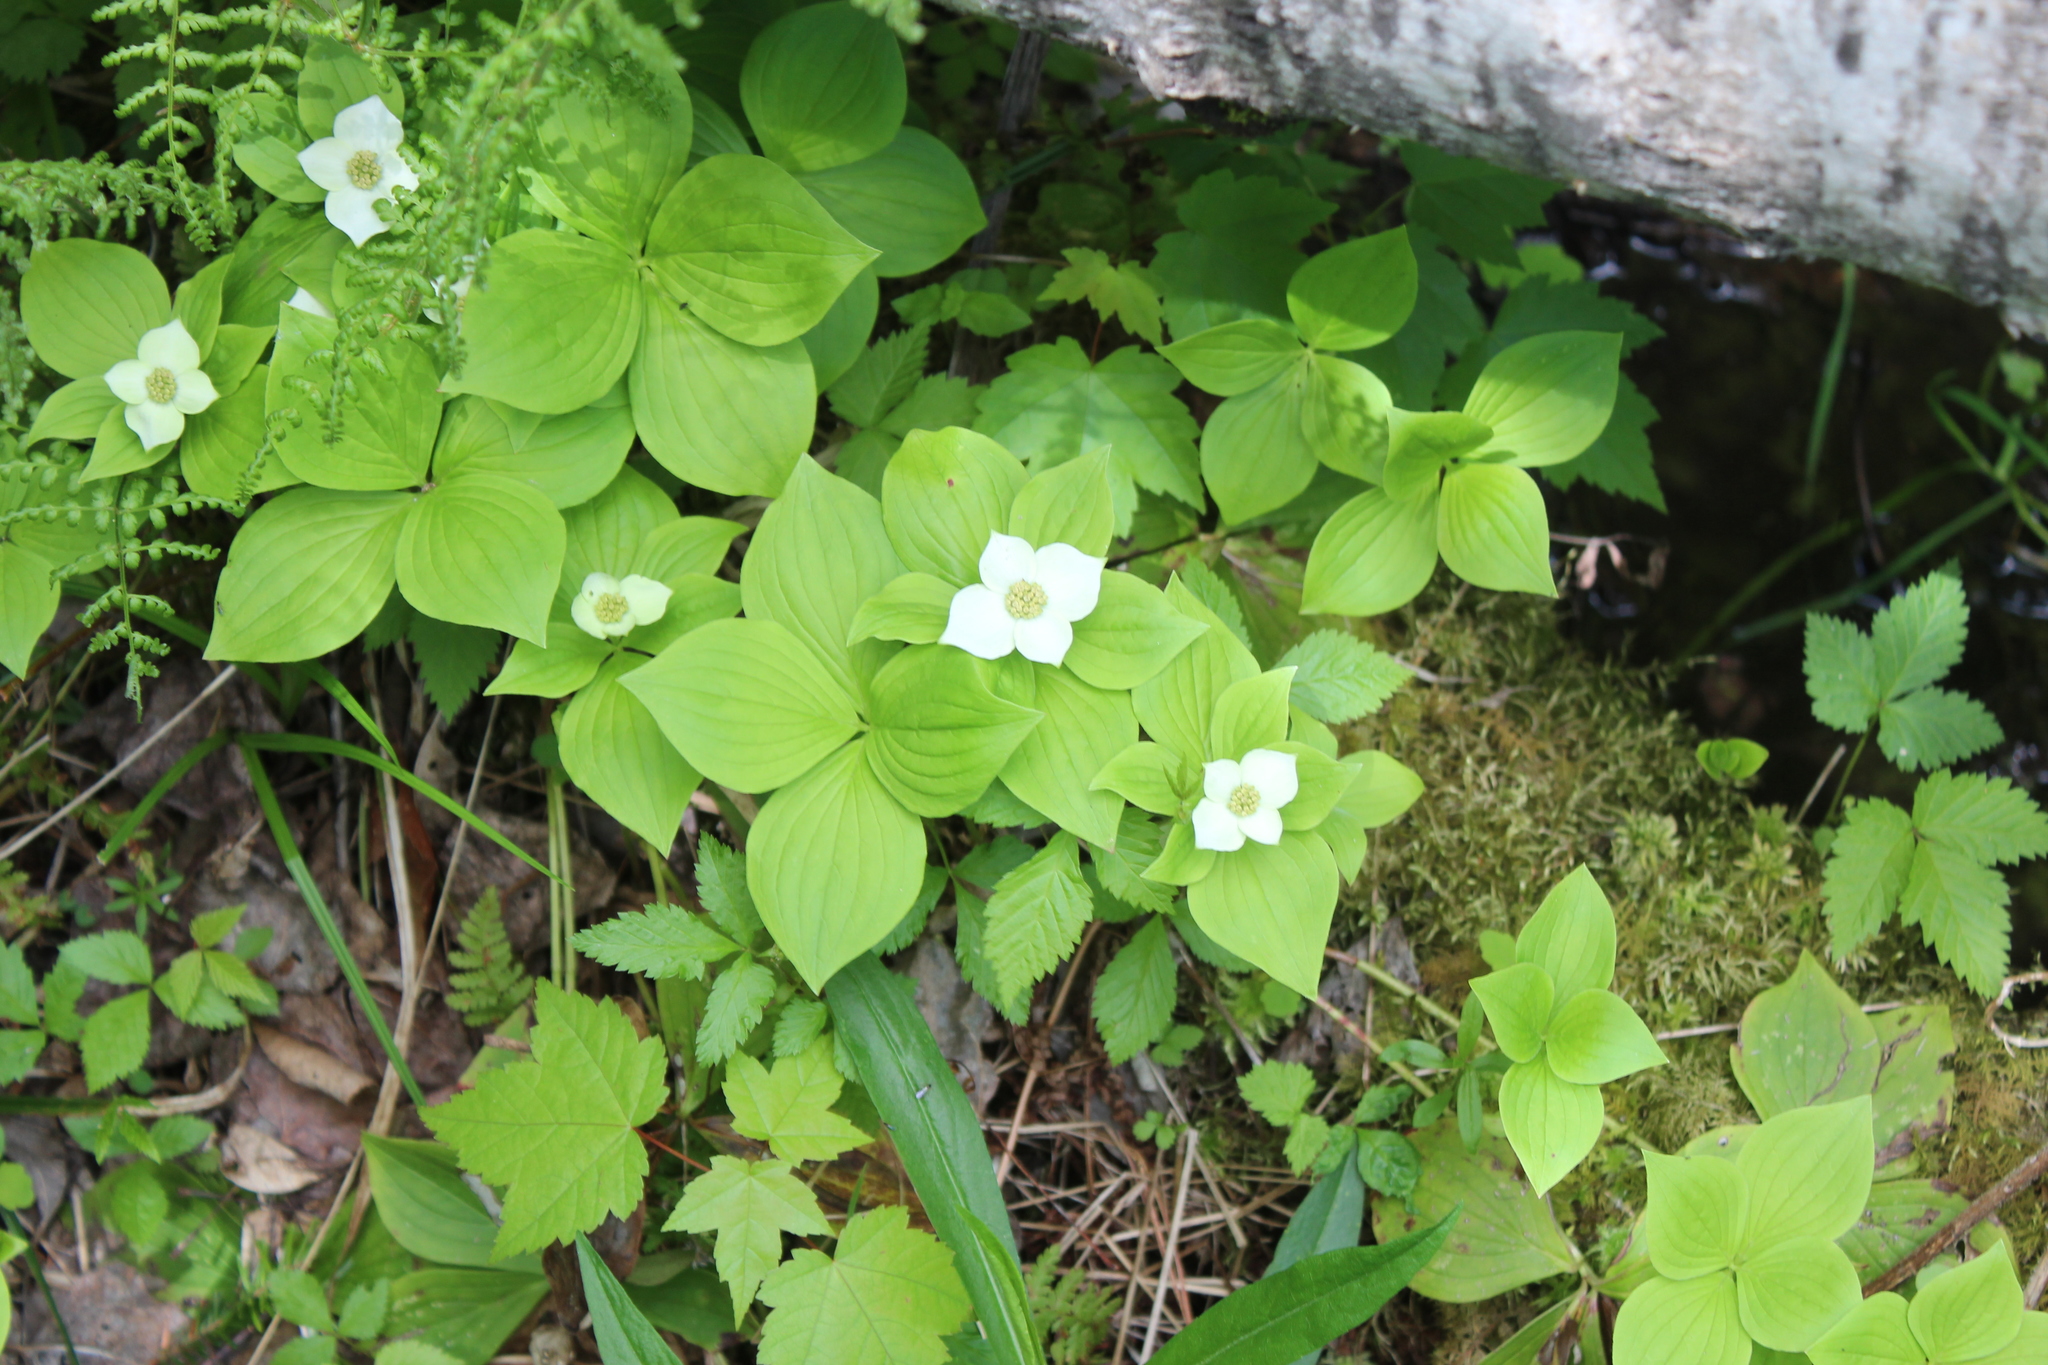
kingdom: Plantae
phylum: Tracheophyta
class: Magnoliopsida
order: Cornales
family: Cornaceae
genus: Cornus
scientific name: Cornus canadensis
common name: Creeping dogwood
